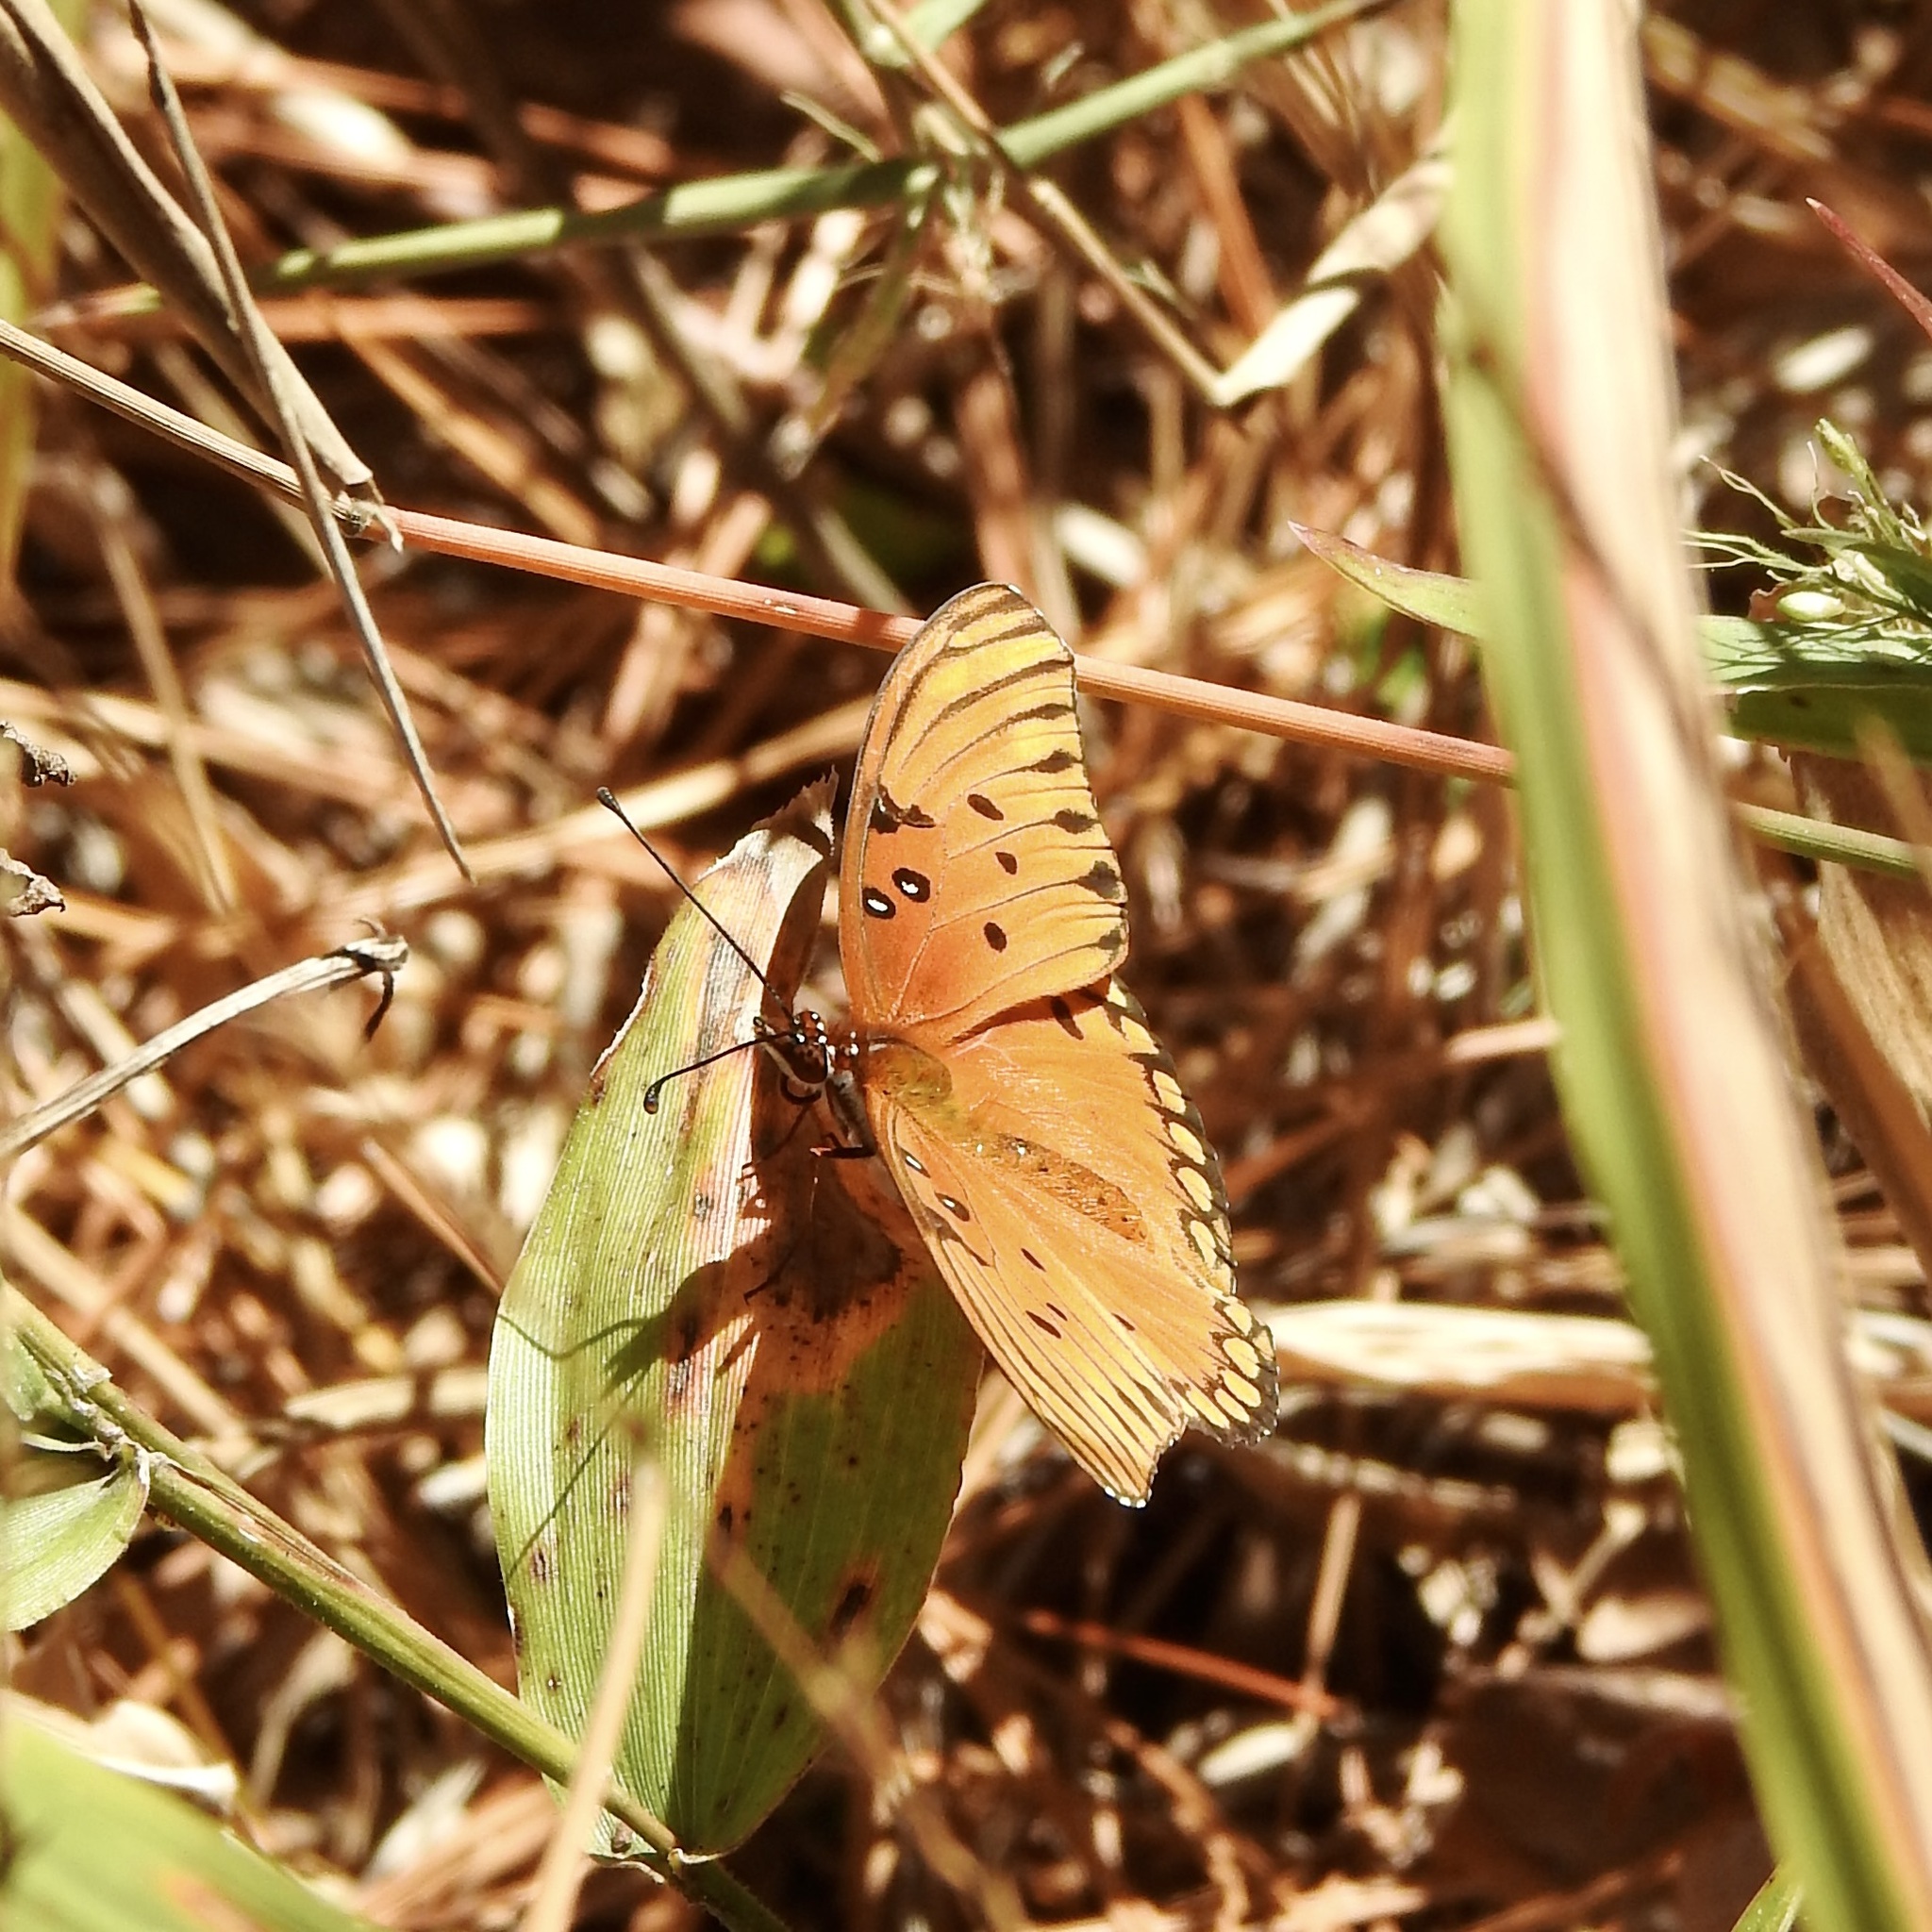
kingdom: Animalia
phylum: Arthropoda
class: Insecta
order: Lepidoptera
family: Nymphalidae
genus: Dione
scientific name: Dione vanillae
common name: Gulf fritillary
